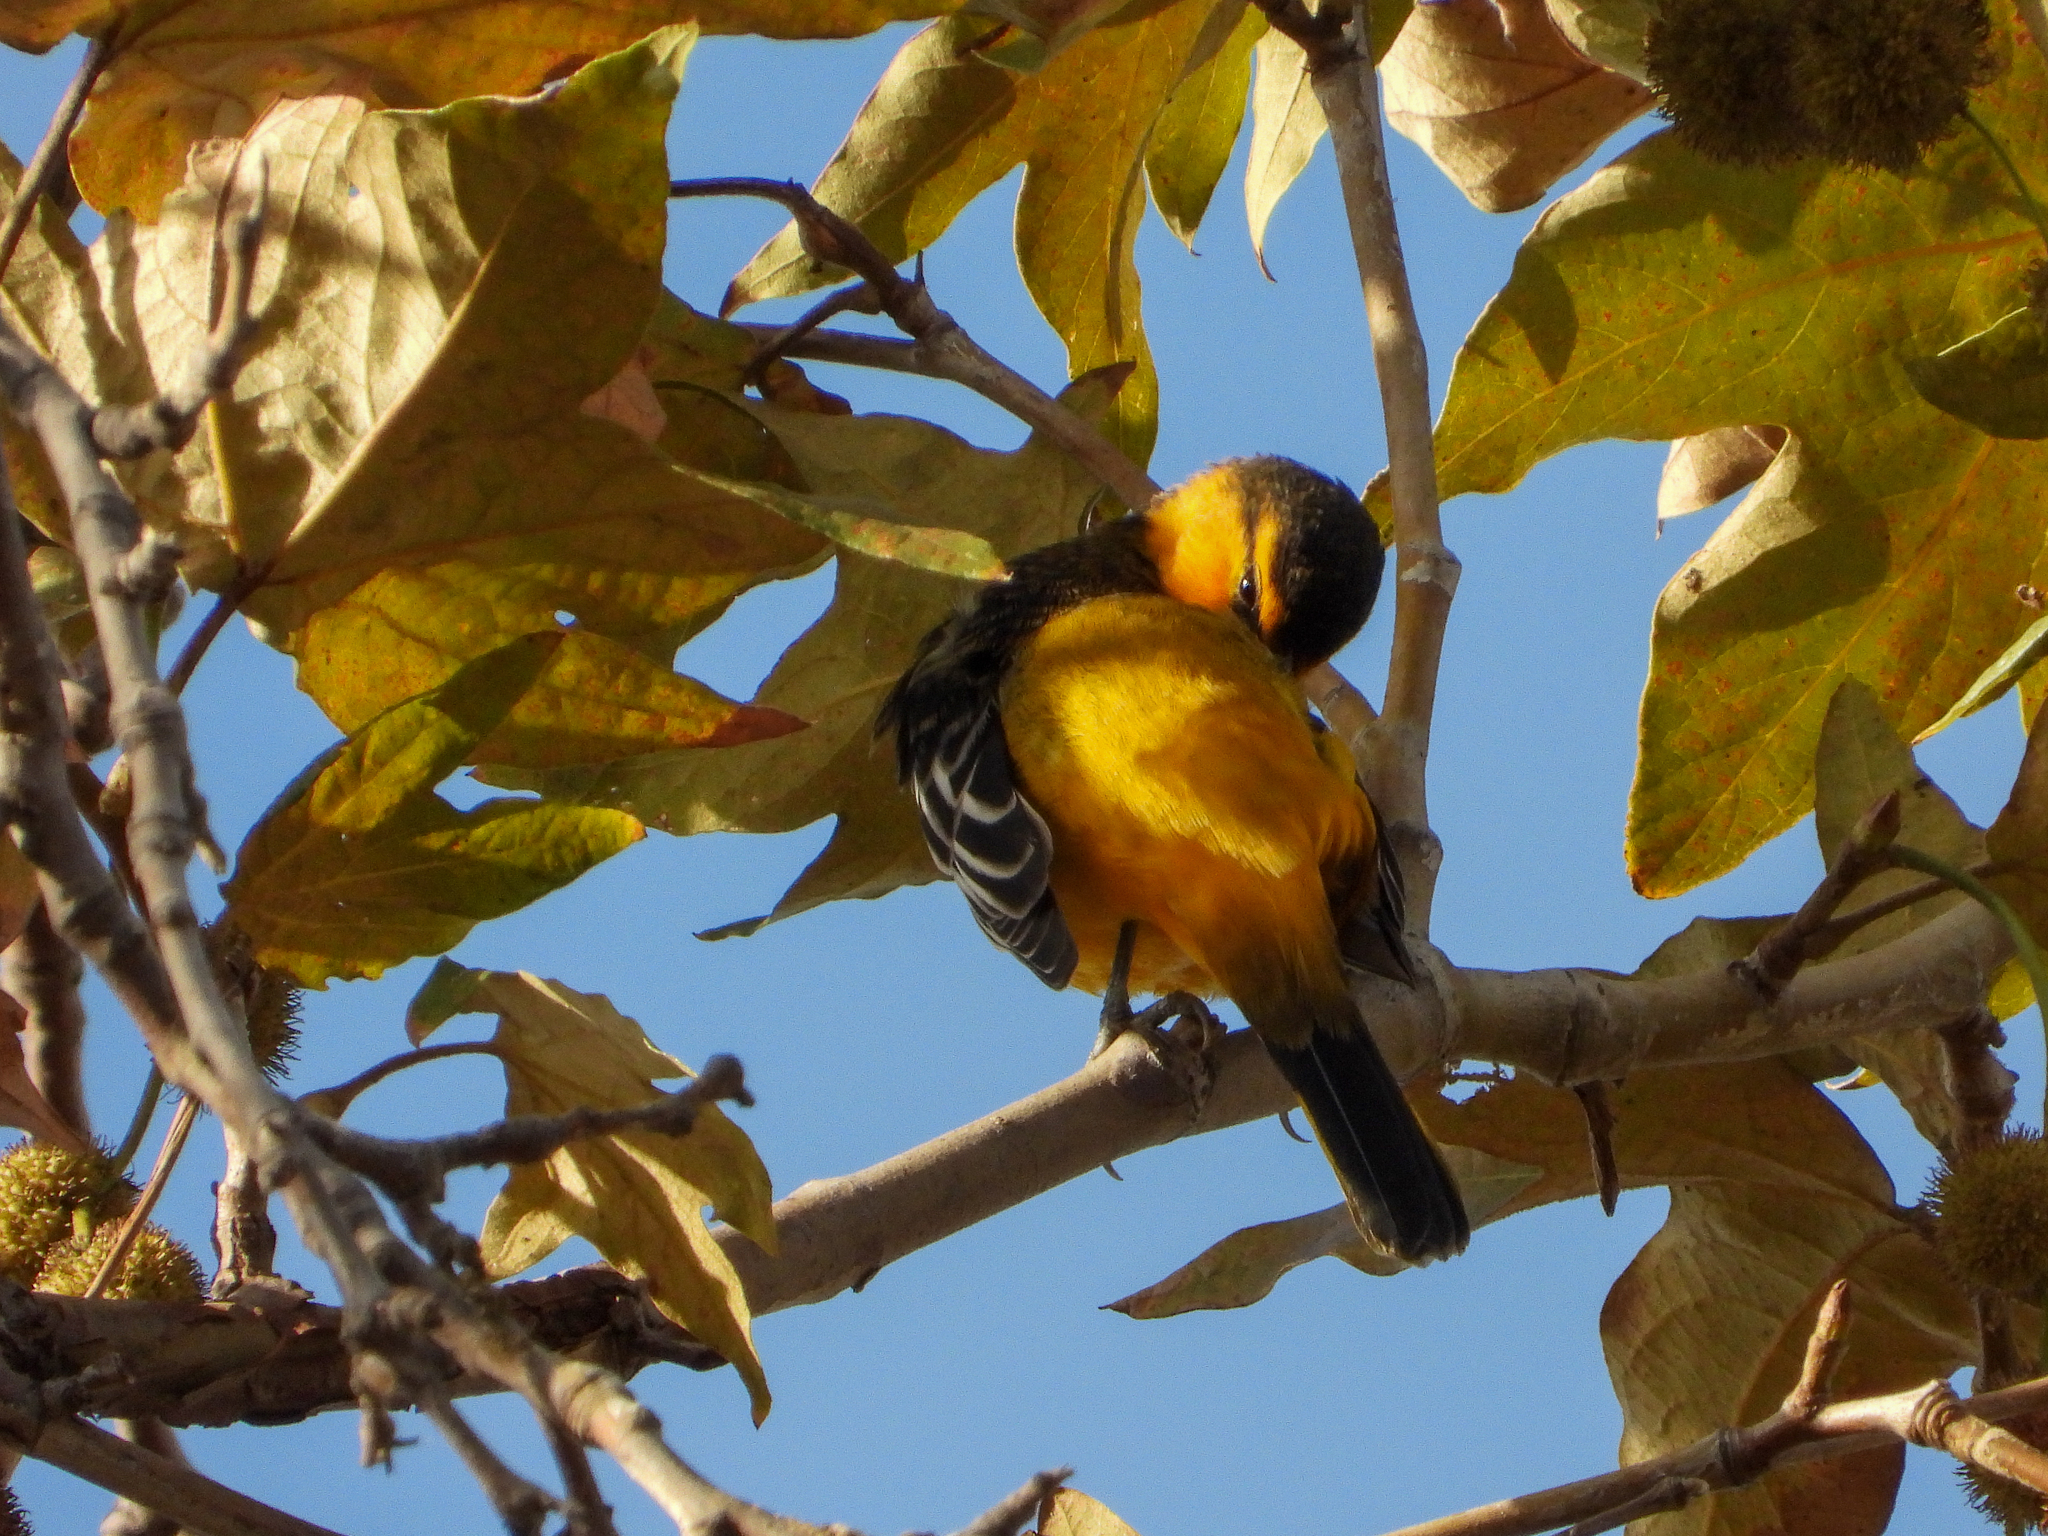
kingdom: Animalia
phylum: Chordata
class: Aves
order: Passeriformes
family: Icteridae
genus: Icterus
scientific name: Icterus bullockii
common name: Bullock's oriole
